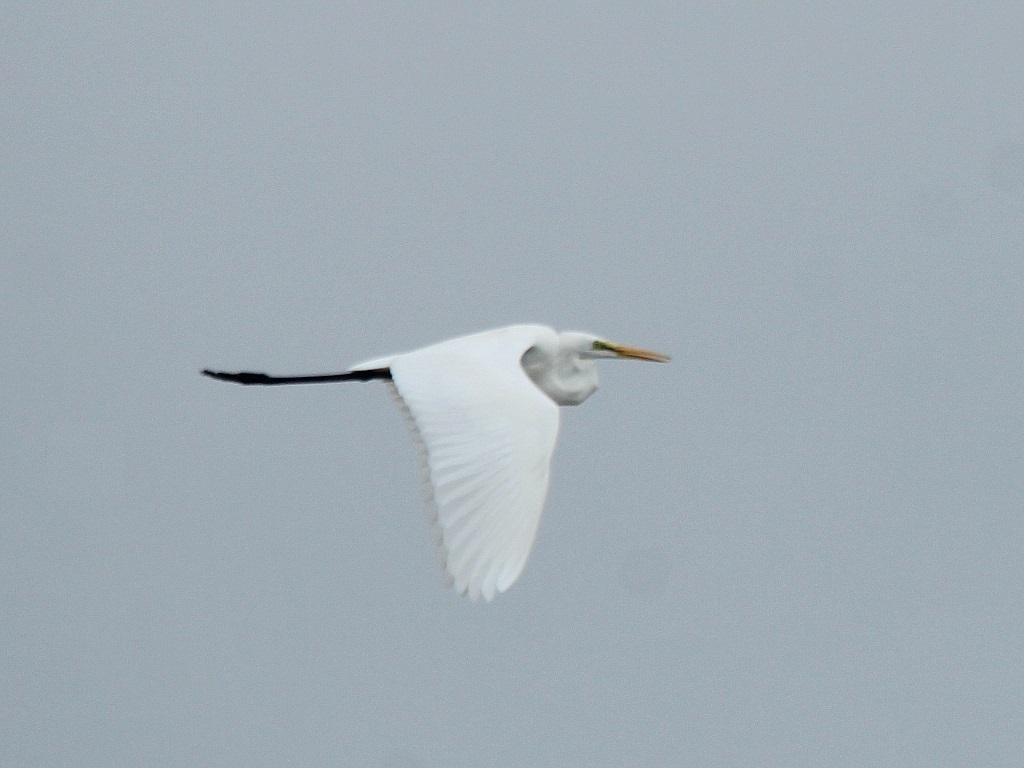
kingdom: Animalia
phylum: Chordata
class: Aves
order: Pelecaniformes
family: Ardeidae
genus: Ardea
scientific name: Ardea alba
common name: Great egret
